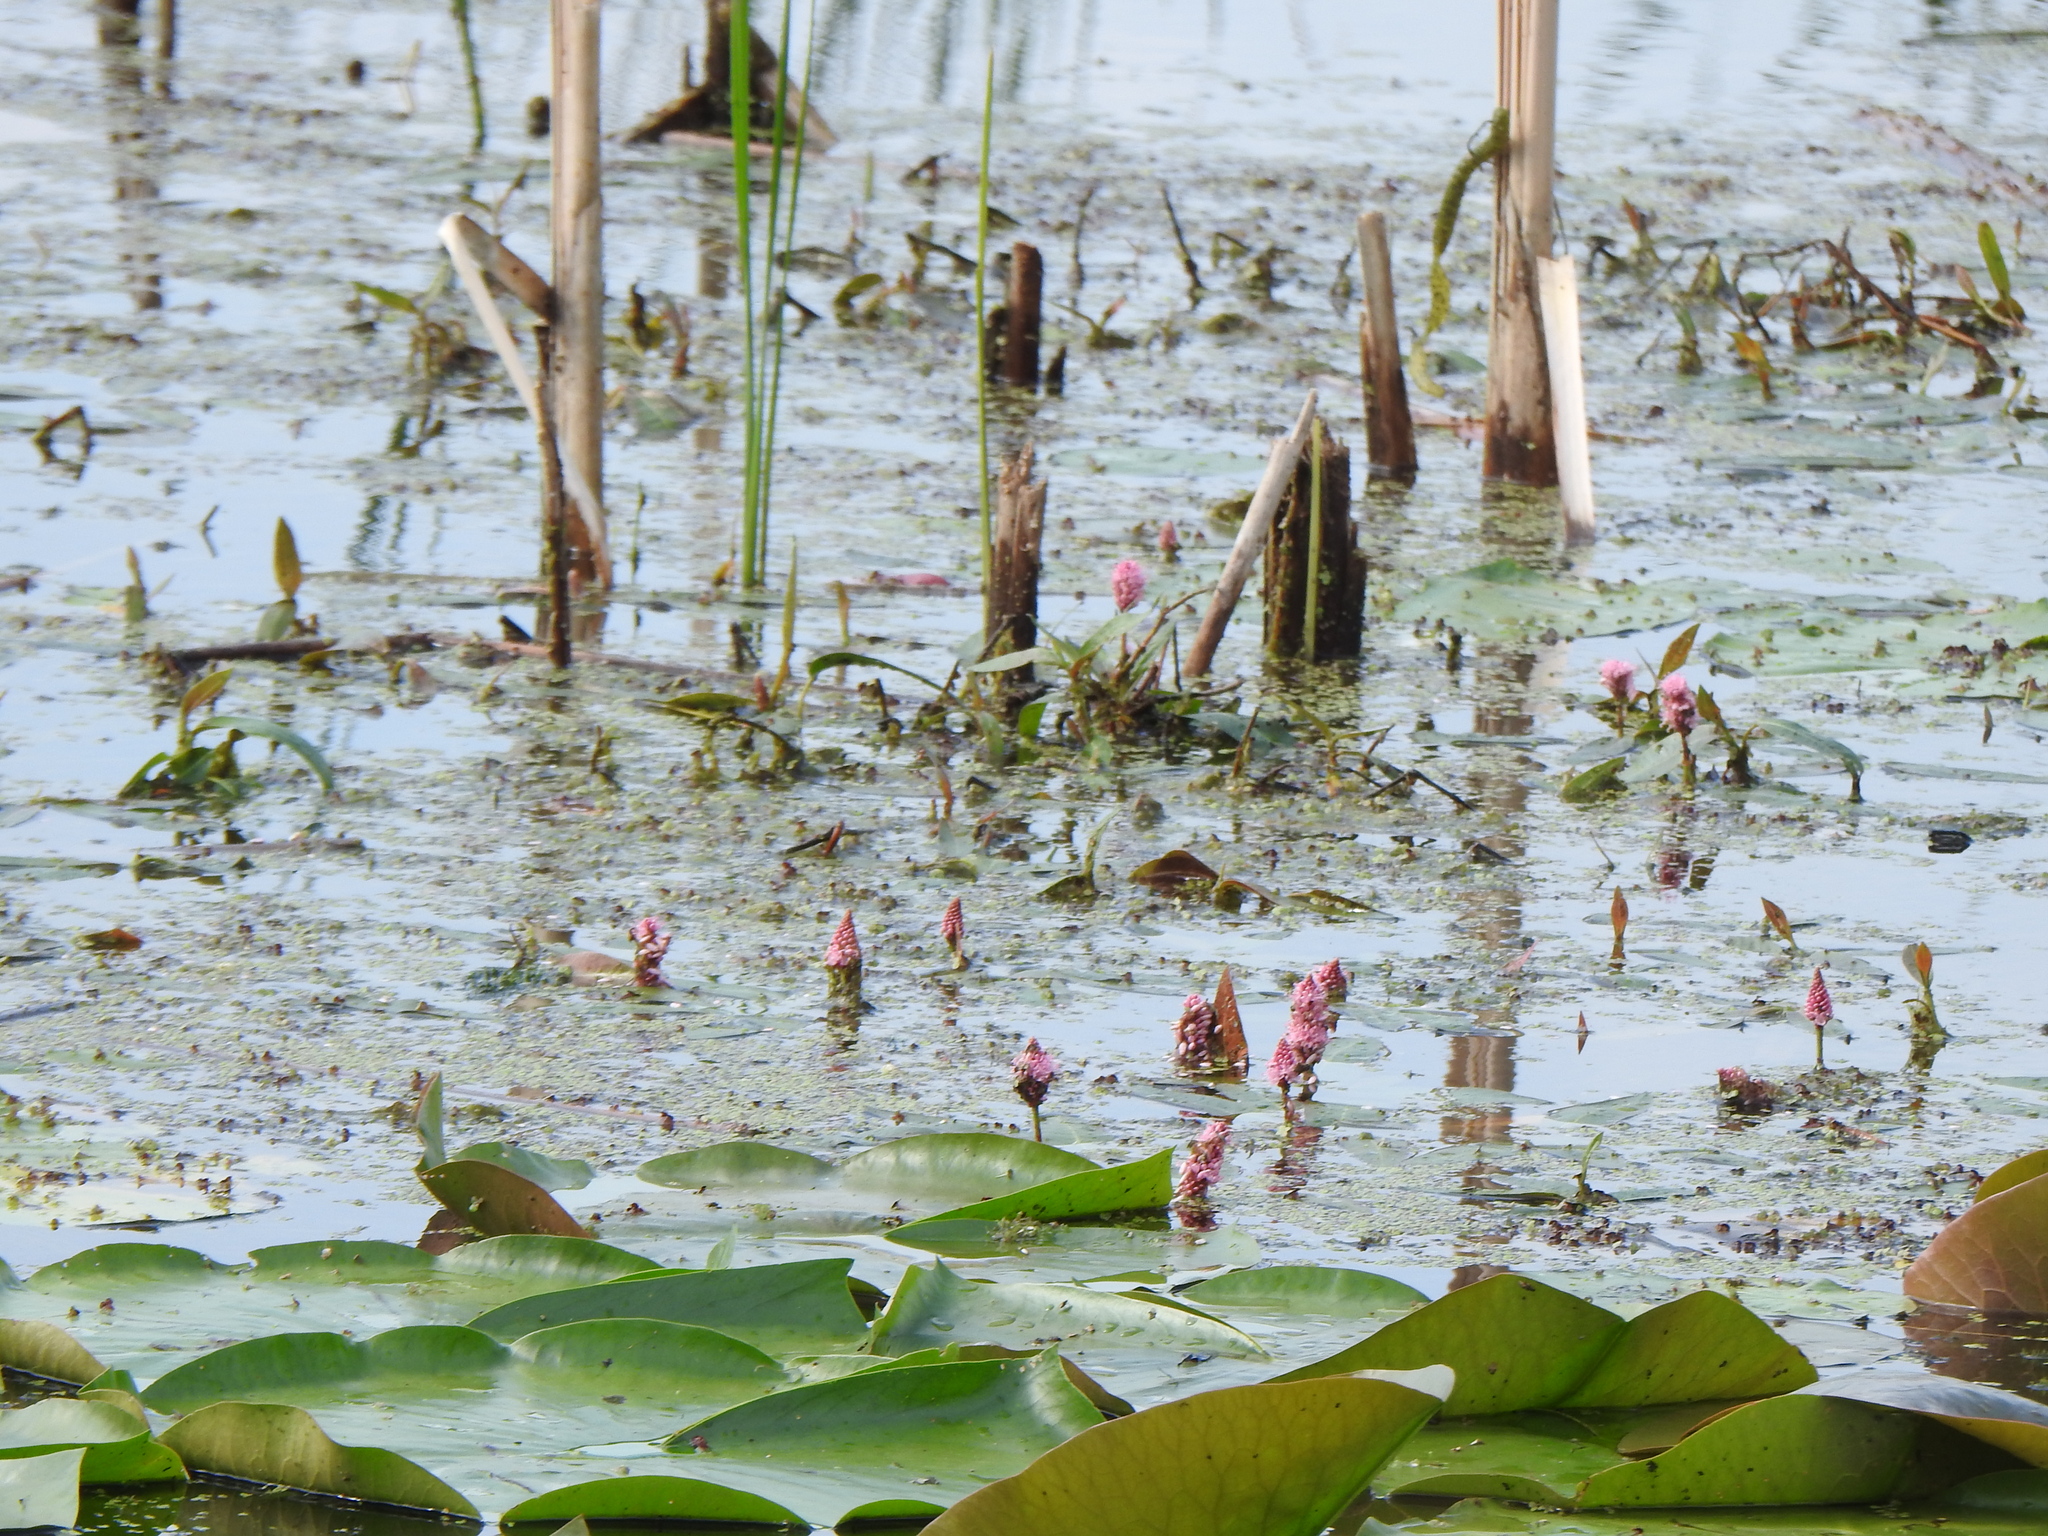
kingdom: Plantae
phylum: Tracheophyta
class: Magnoliopsida
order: Caryophyllales
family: Polygonaceae
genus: Persicaria
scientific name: Persicaria amphibia
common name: Amphibious bistort
